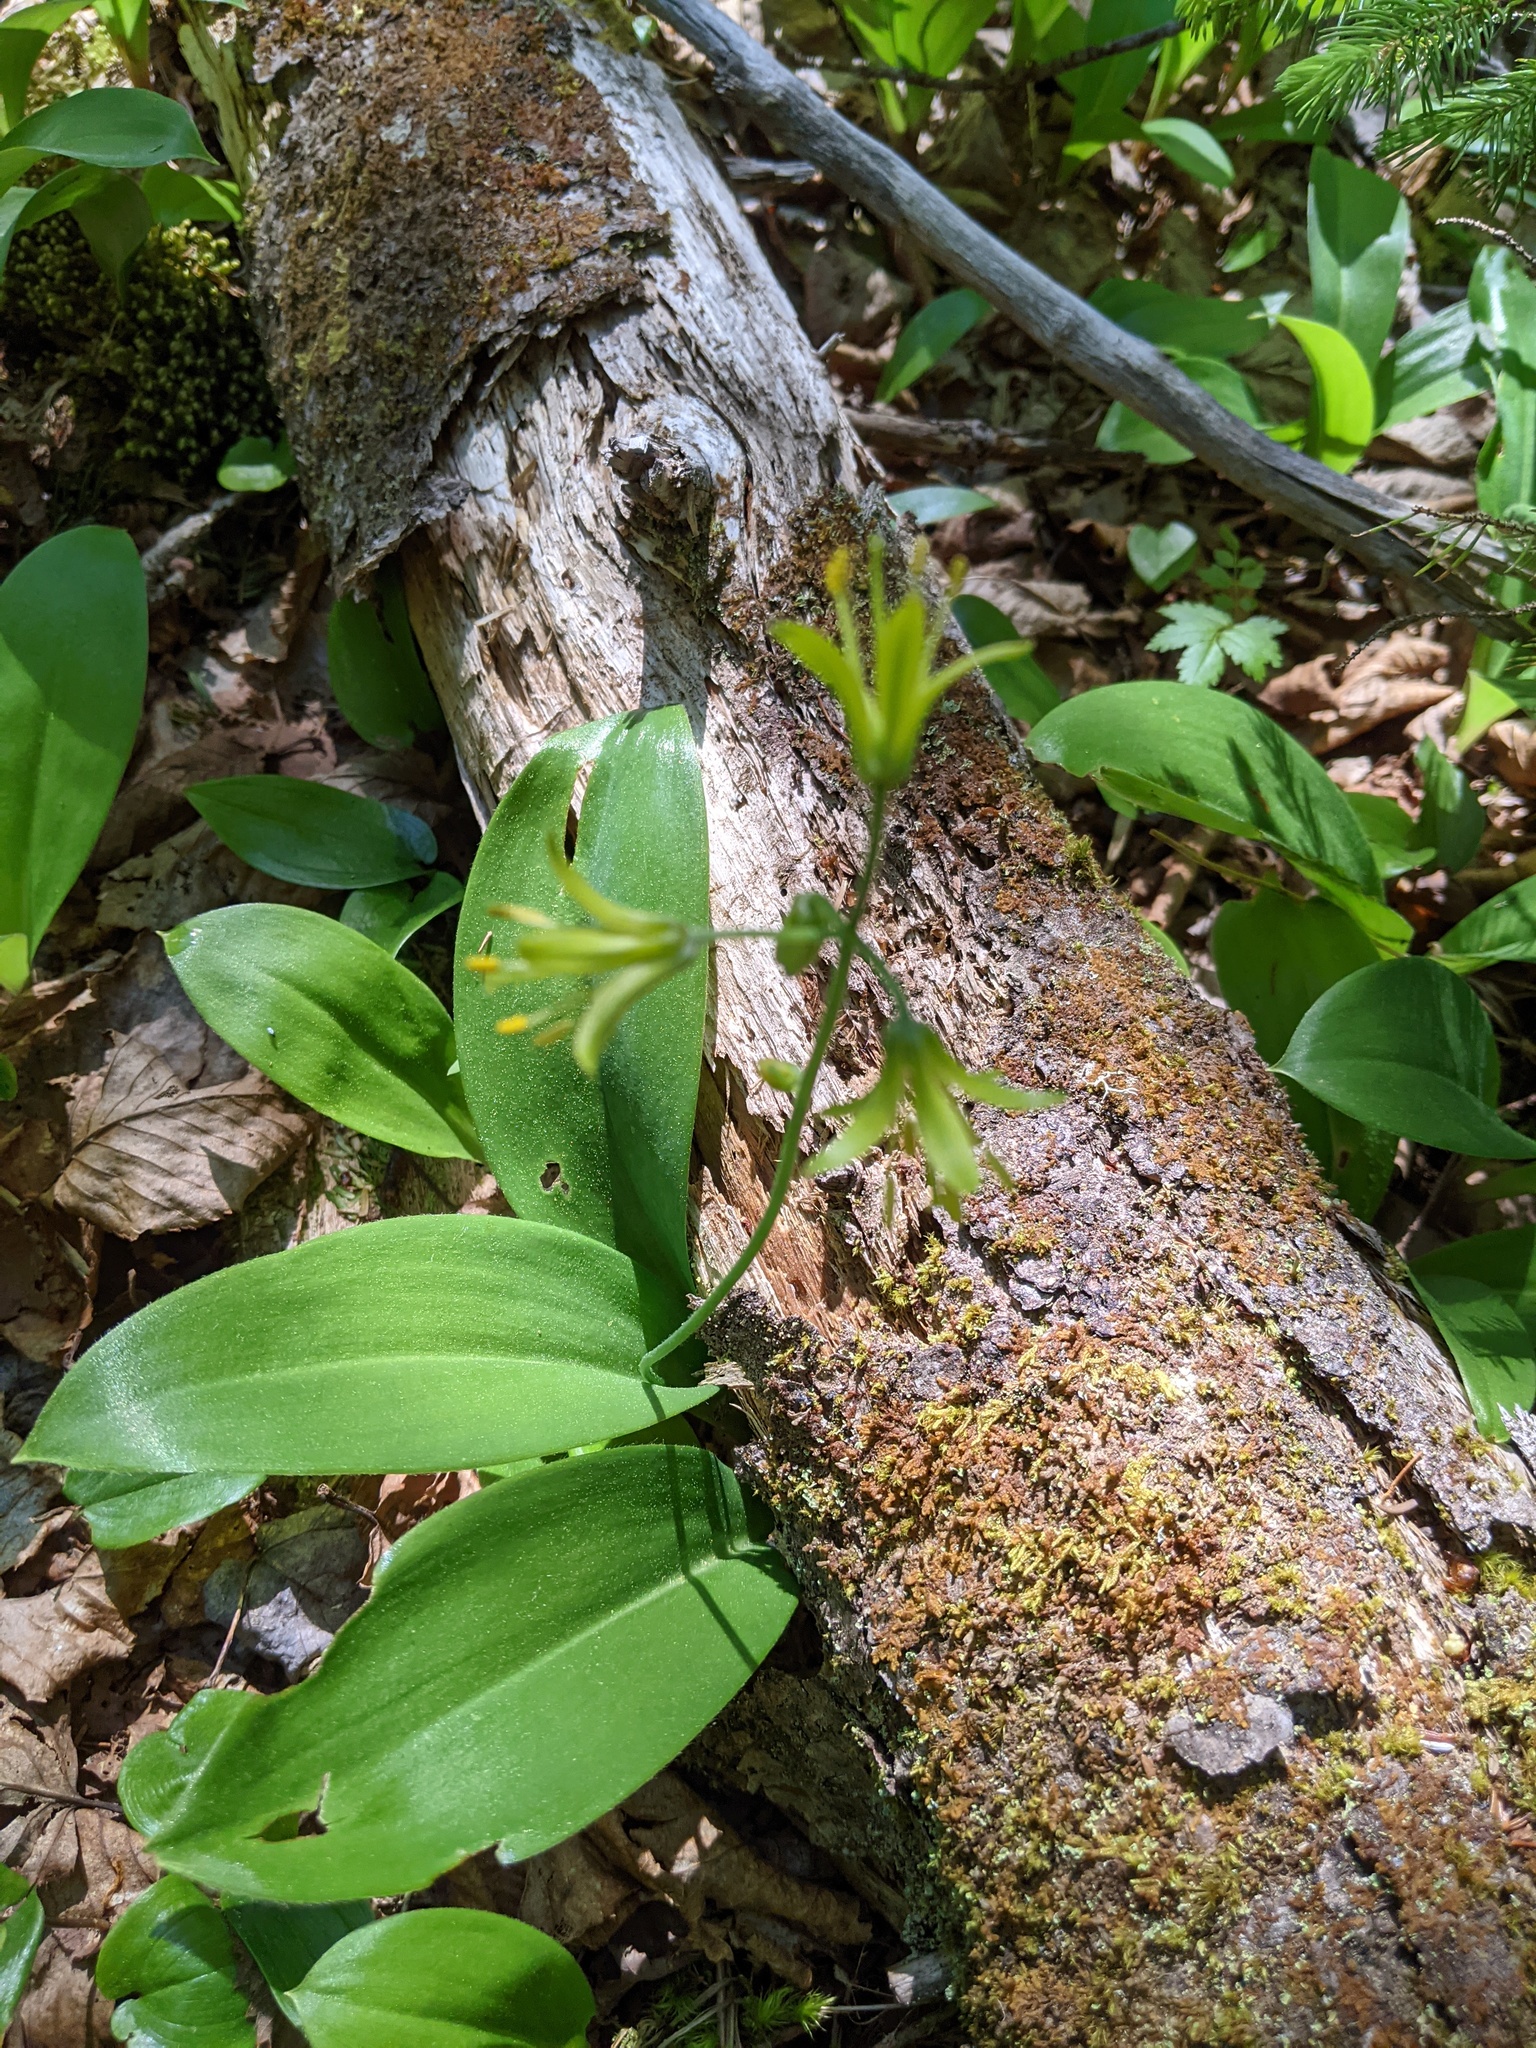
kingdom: Plantae
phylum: Tracheophyta
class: Liliopsida
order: Liliales
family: Liliaceae
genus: Clintonia
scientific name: Clintonia borealis
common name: Yellow clintonia
